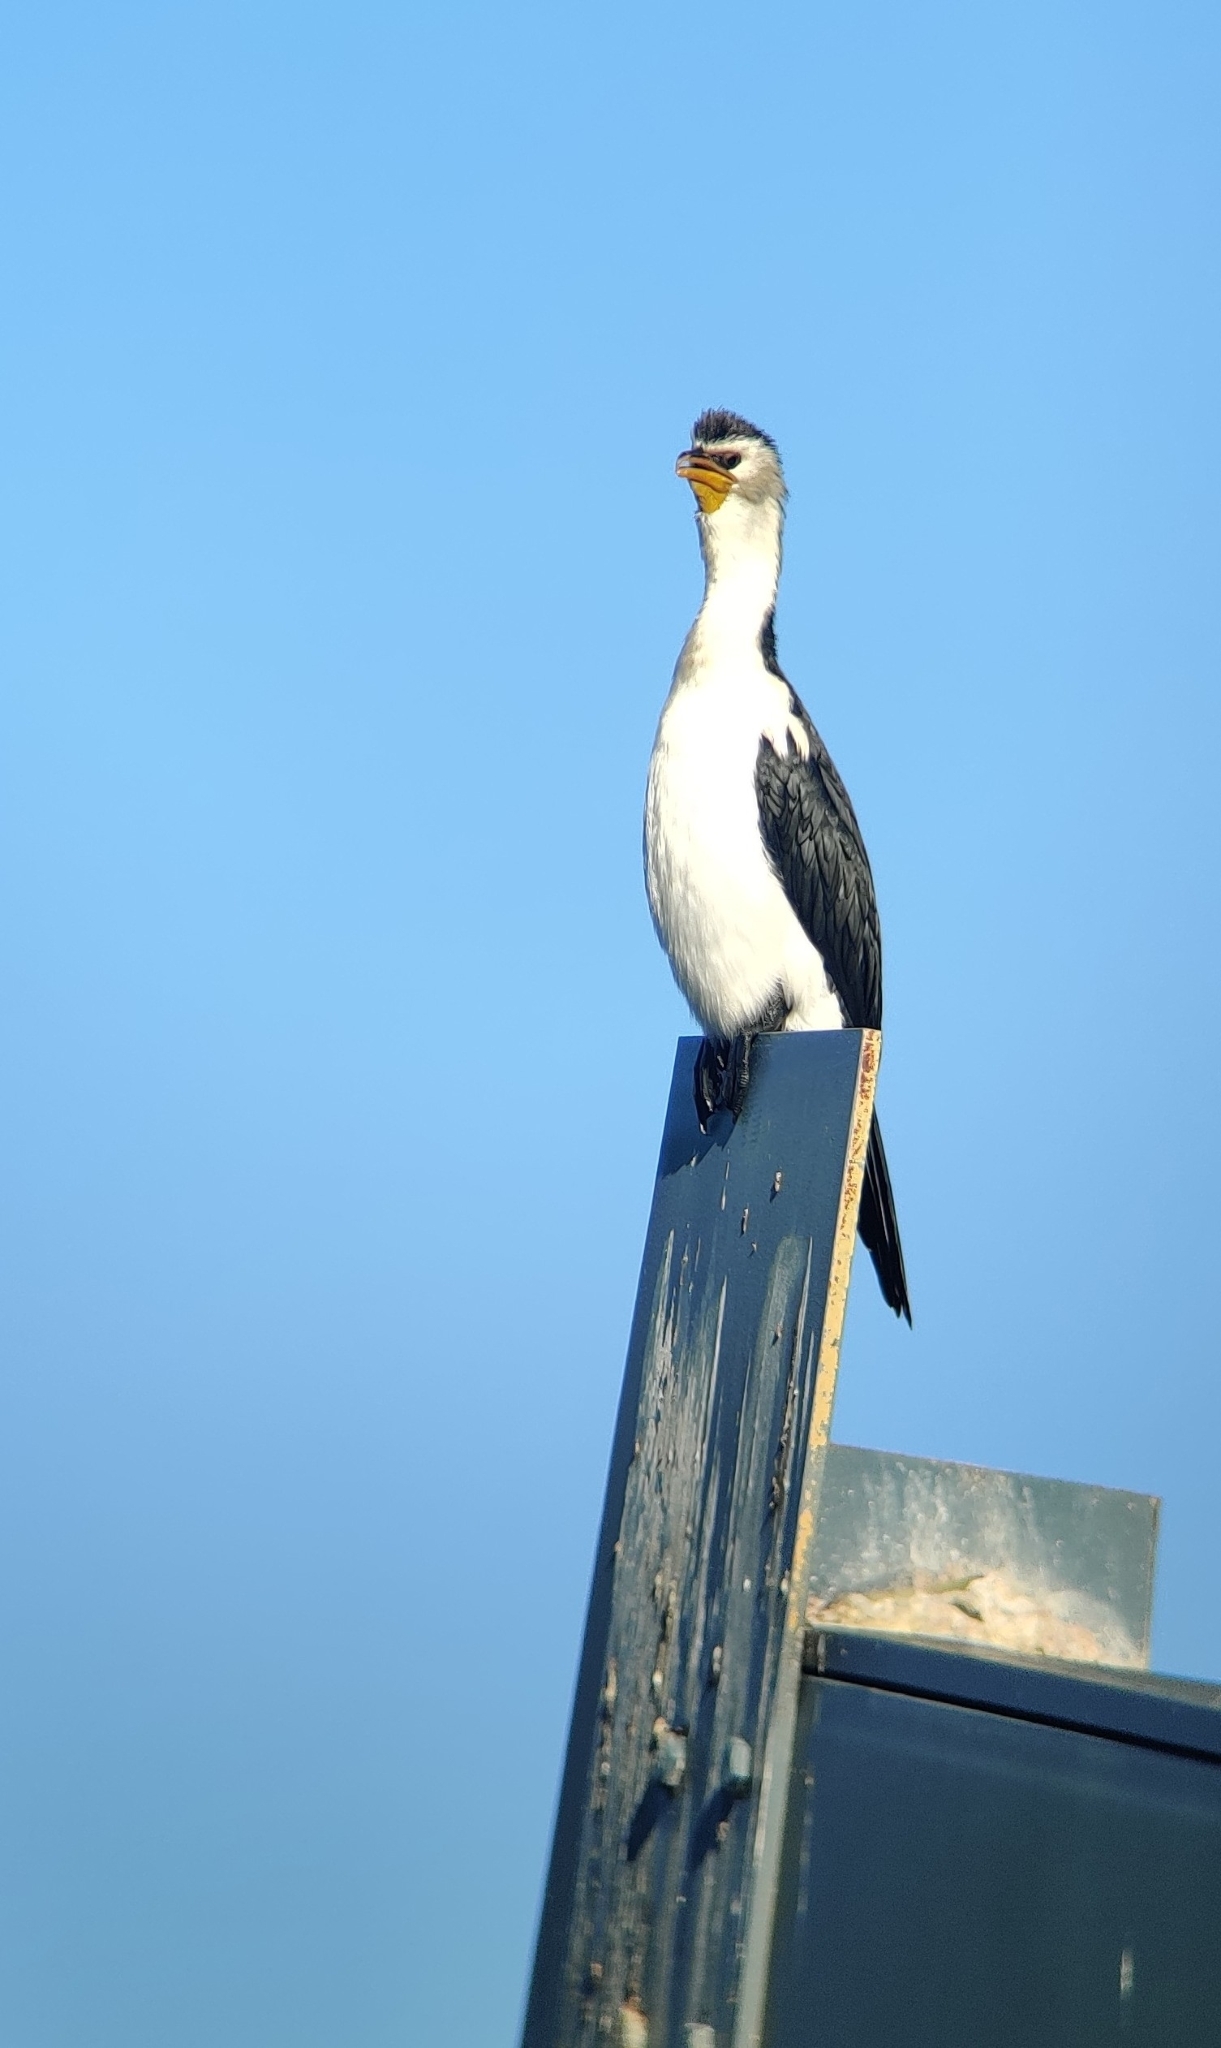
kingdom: Animalia
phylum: Chordata
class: Aves
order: Suliformes
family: Phalacrocoracidae
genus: Microcarbo
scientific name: Microcarbo melanoleucos
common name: Little pied cormorant
